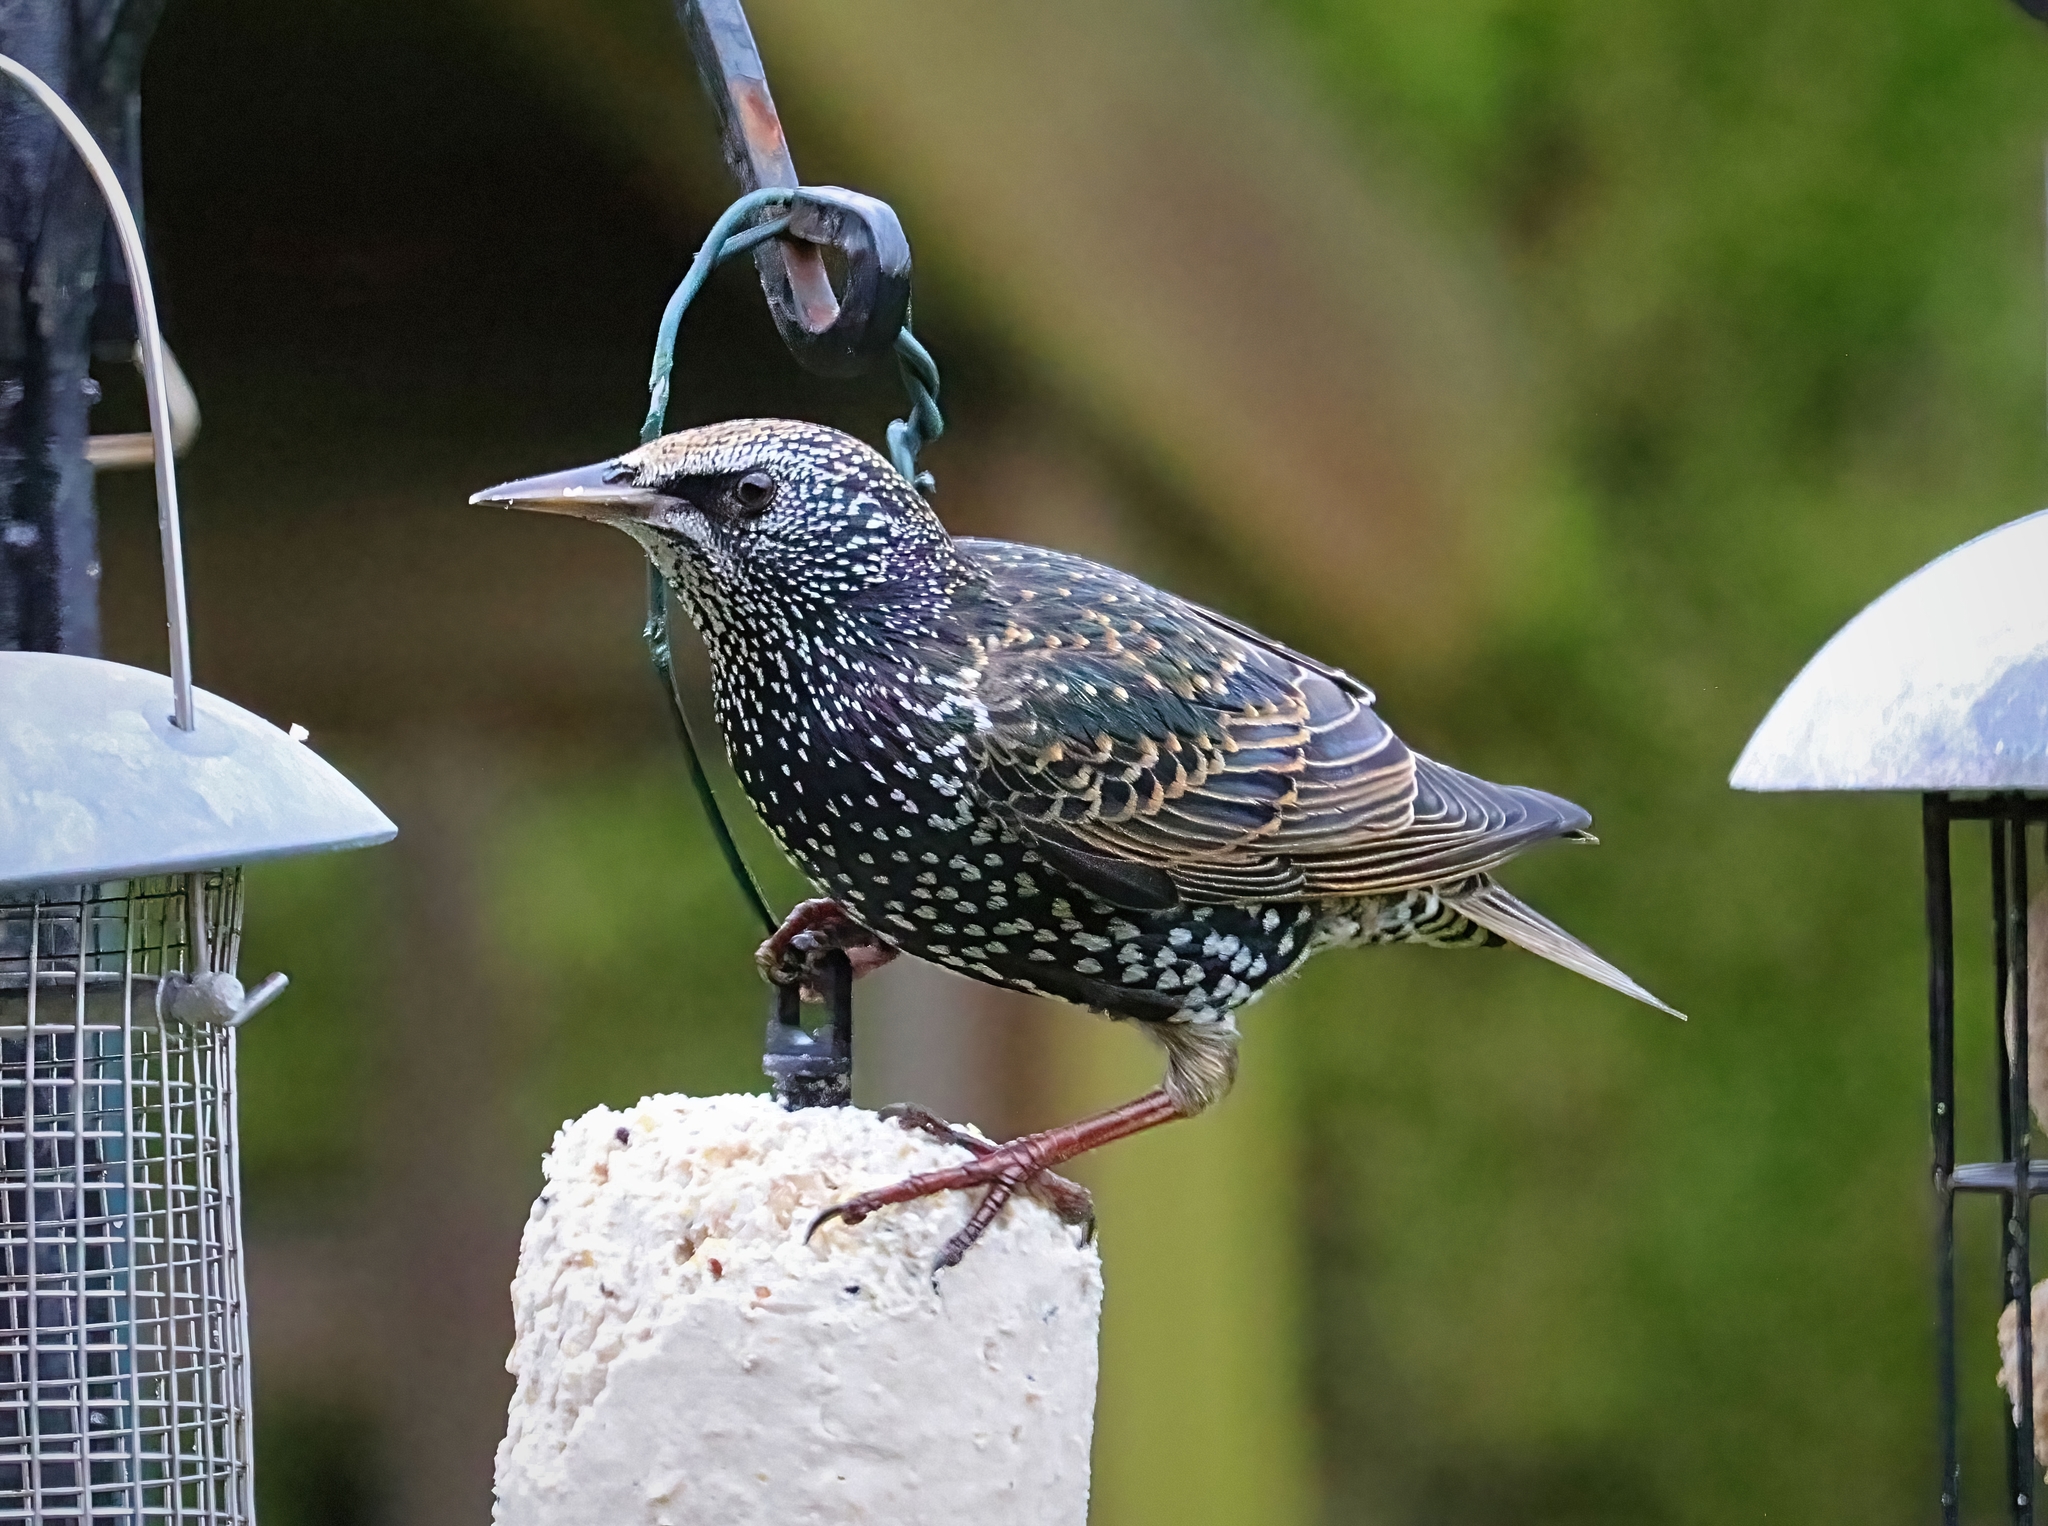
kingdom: Animalia
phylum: Chordata
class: Aves
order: Passeriformes
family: Sturnidae
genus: Sturnus
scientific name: Sturnus vulgaris
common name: Common starling
